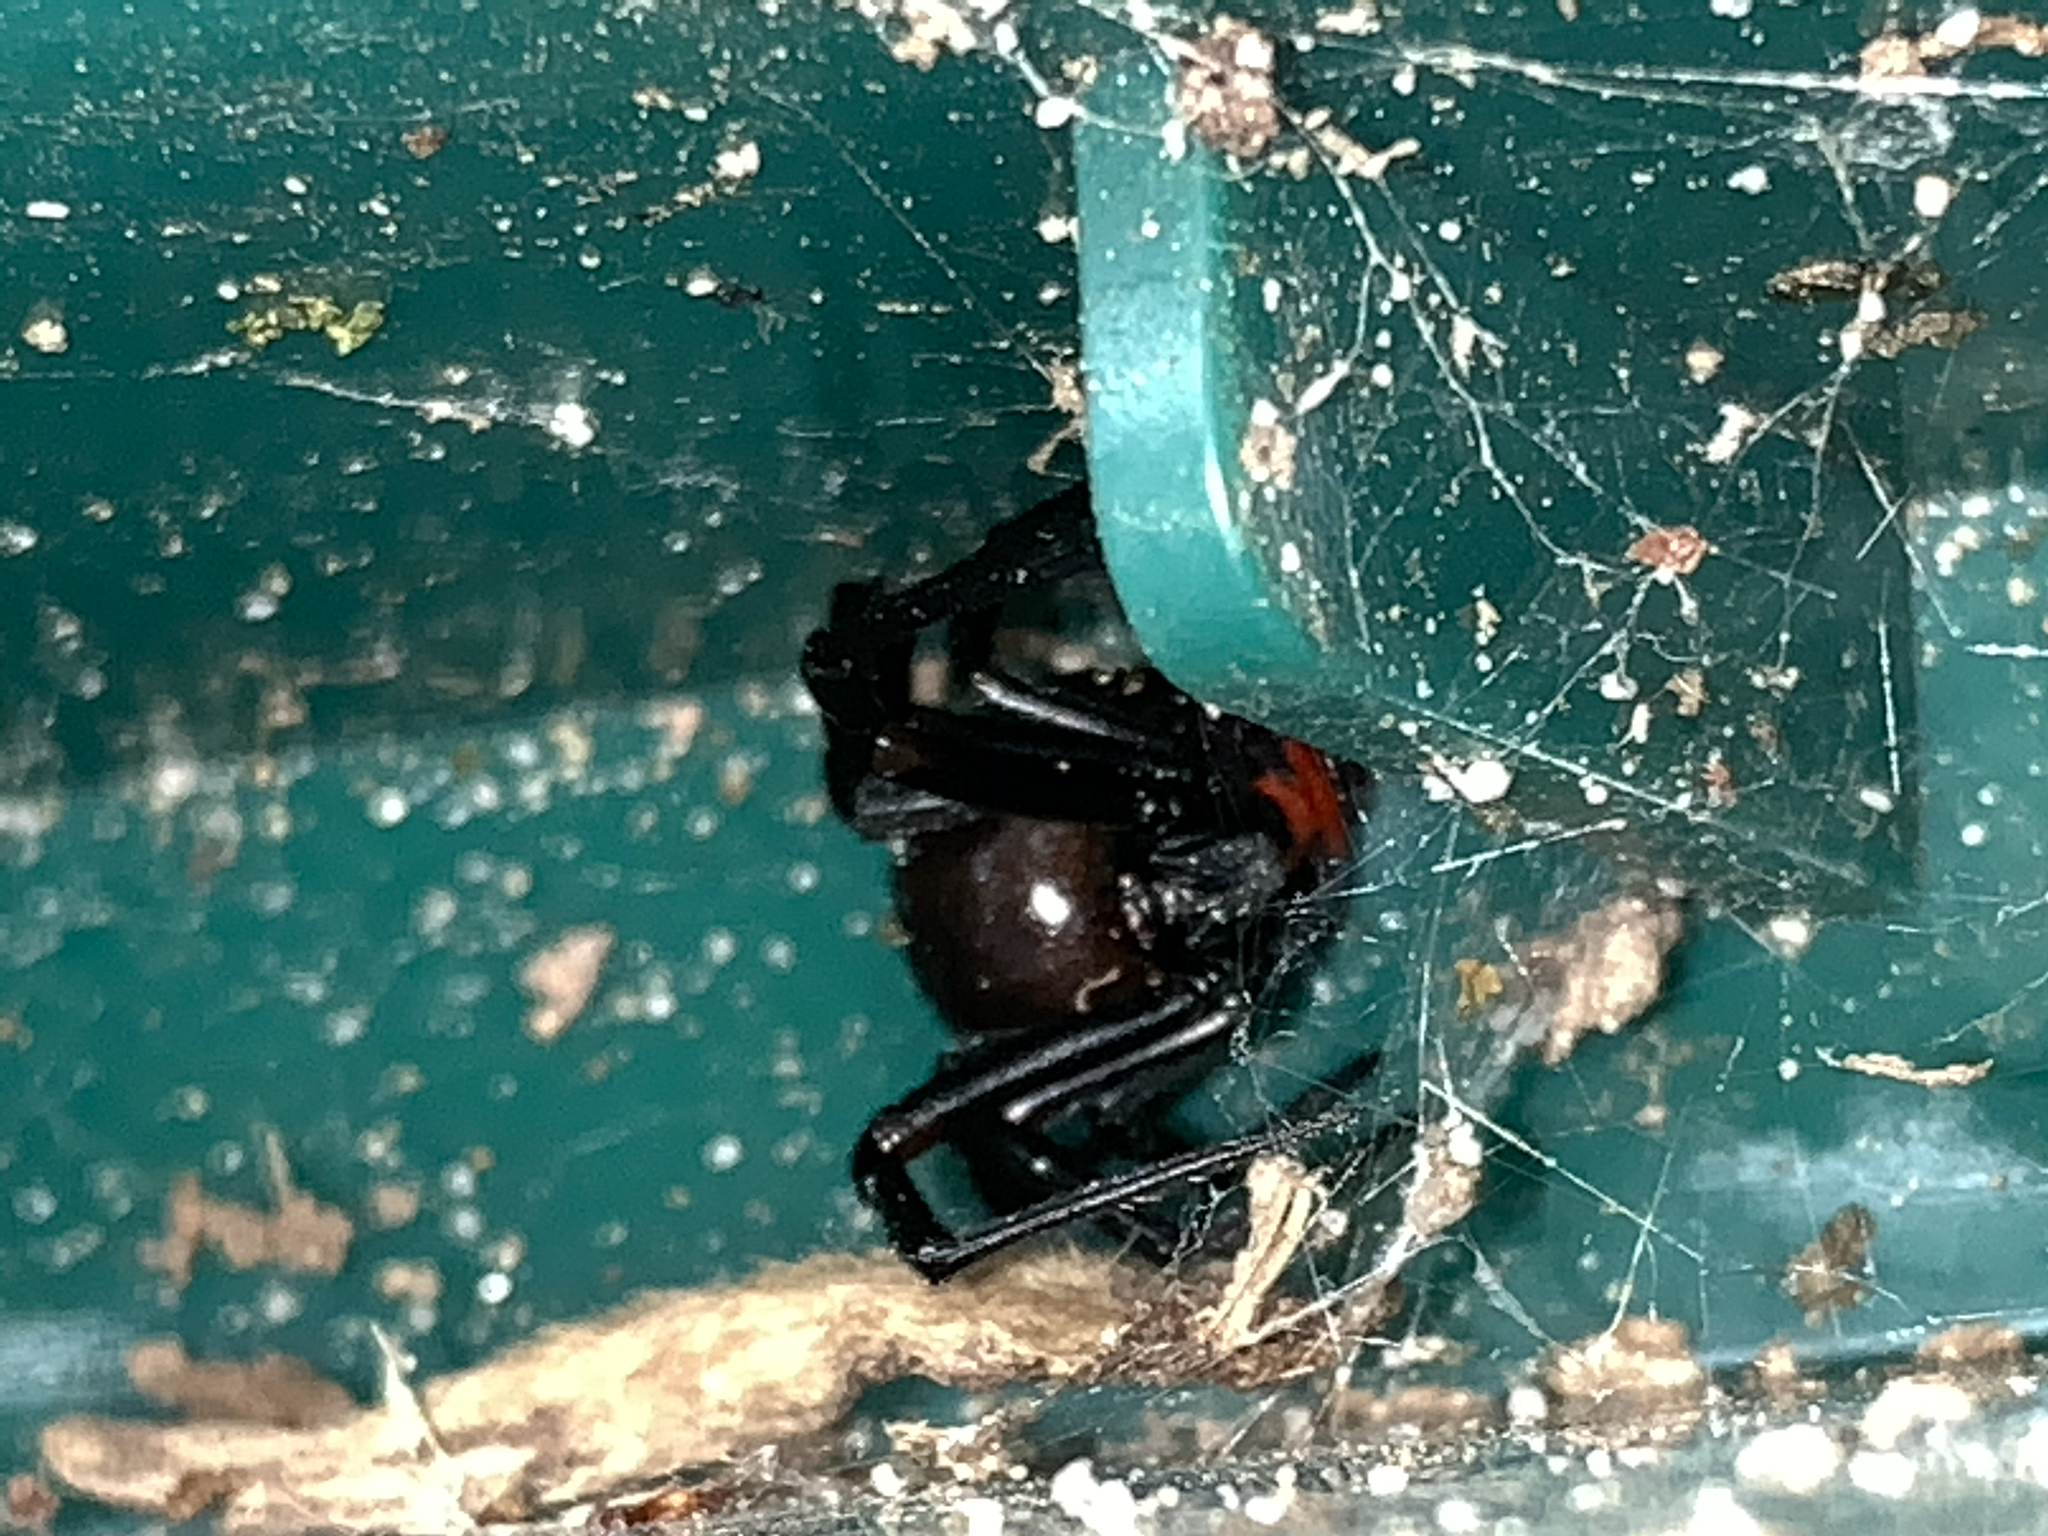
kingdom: Animalia
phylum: Arthropoda
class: Arachnida
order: Araneae
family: Theridiidae
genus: Latrodectus
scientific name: Latrodectus mactans
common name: Cobweb spiders
